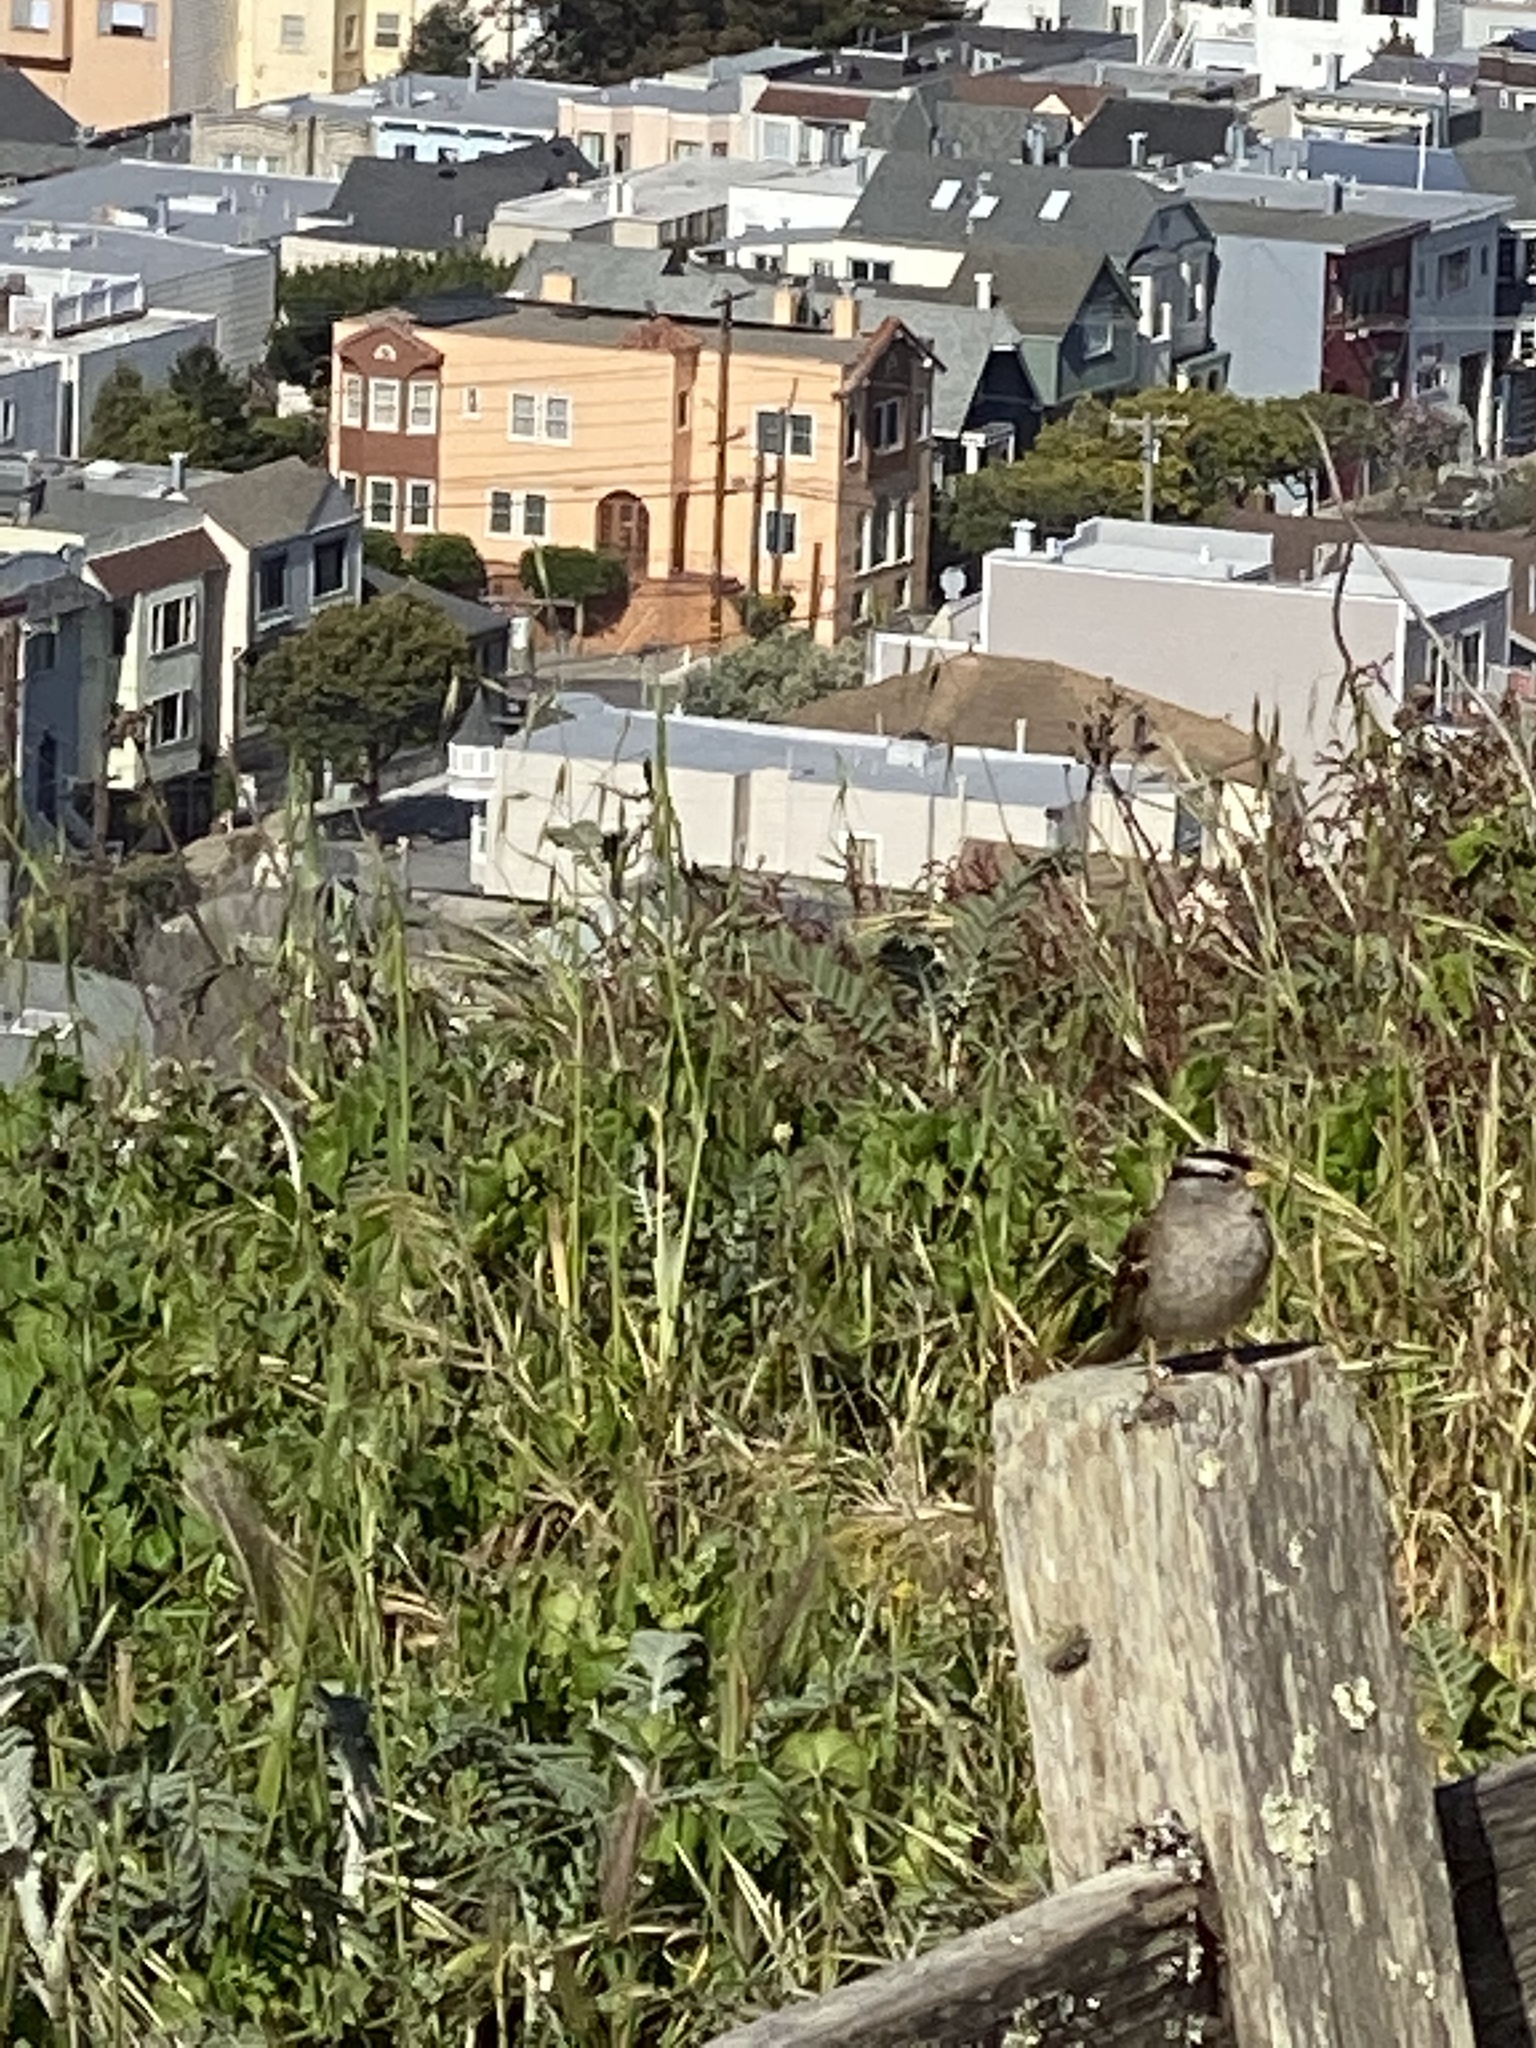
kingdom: Animalia
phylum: Chordata
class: Aves
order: Passeriformes
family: Passerellidae
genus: Zonotrichia
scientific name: Zonotrichia leucophrys
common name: White-crowned sparrow
